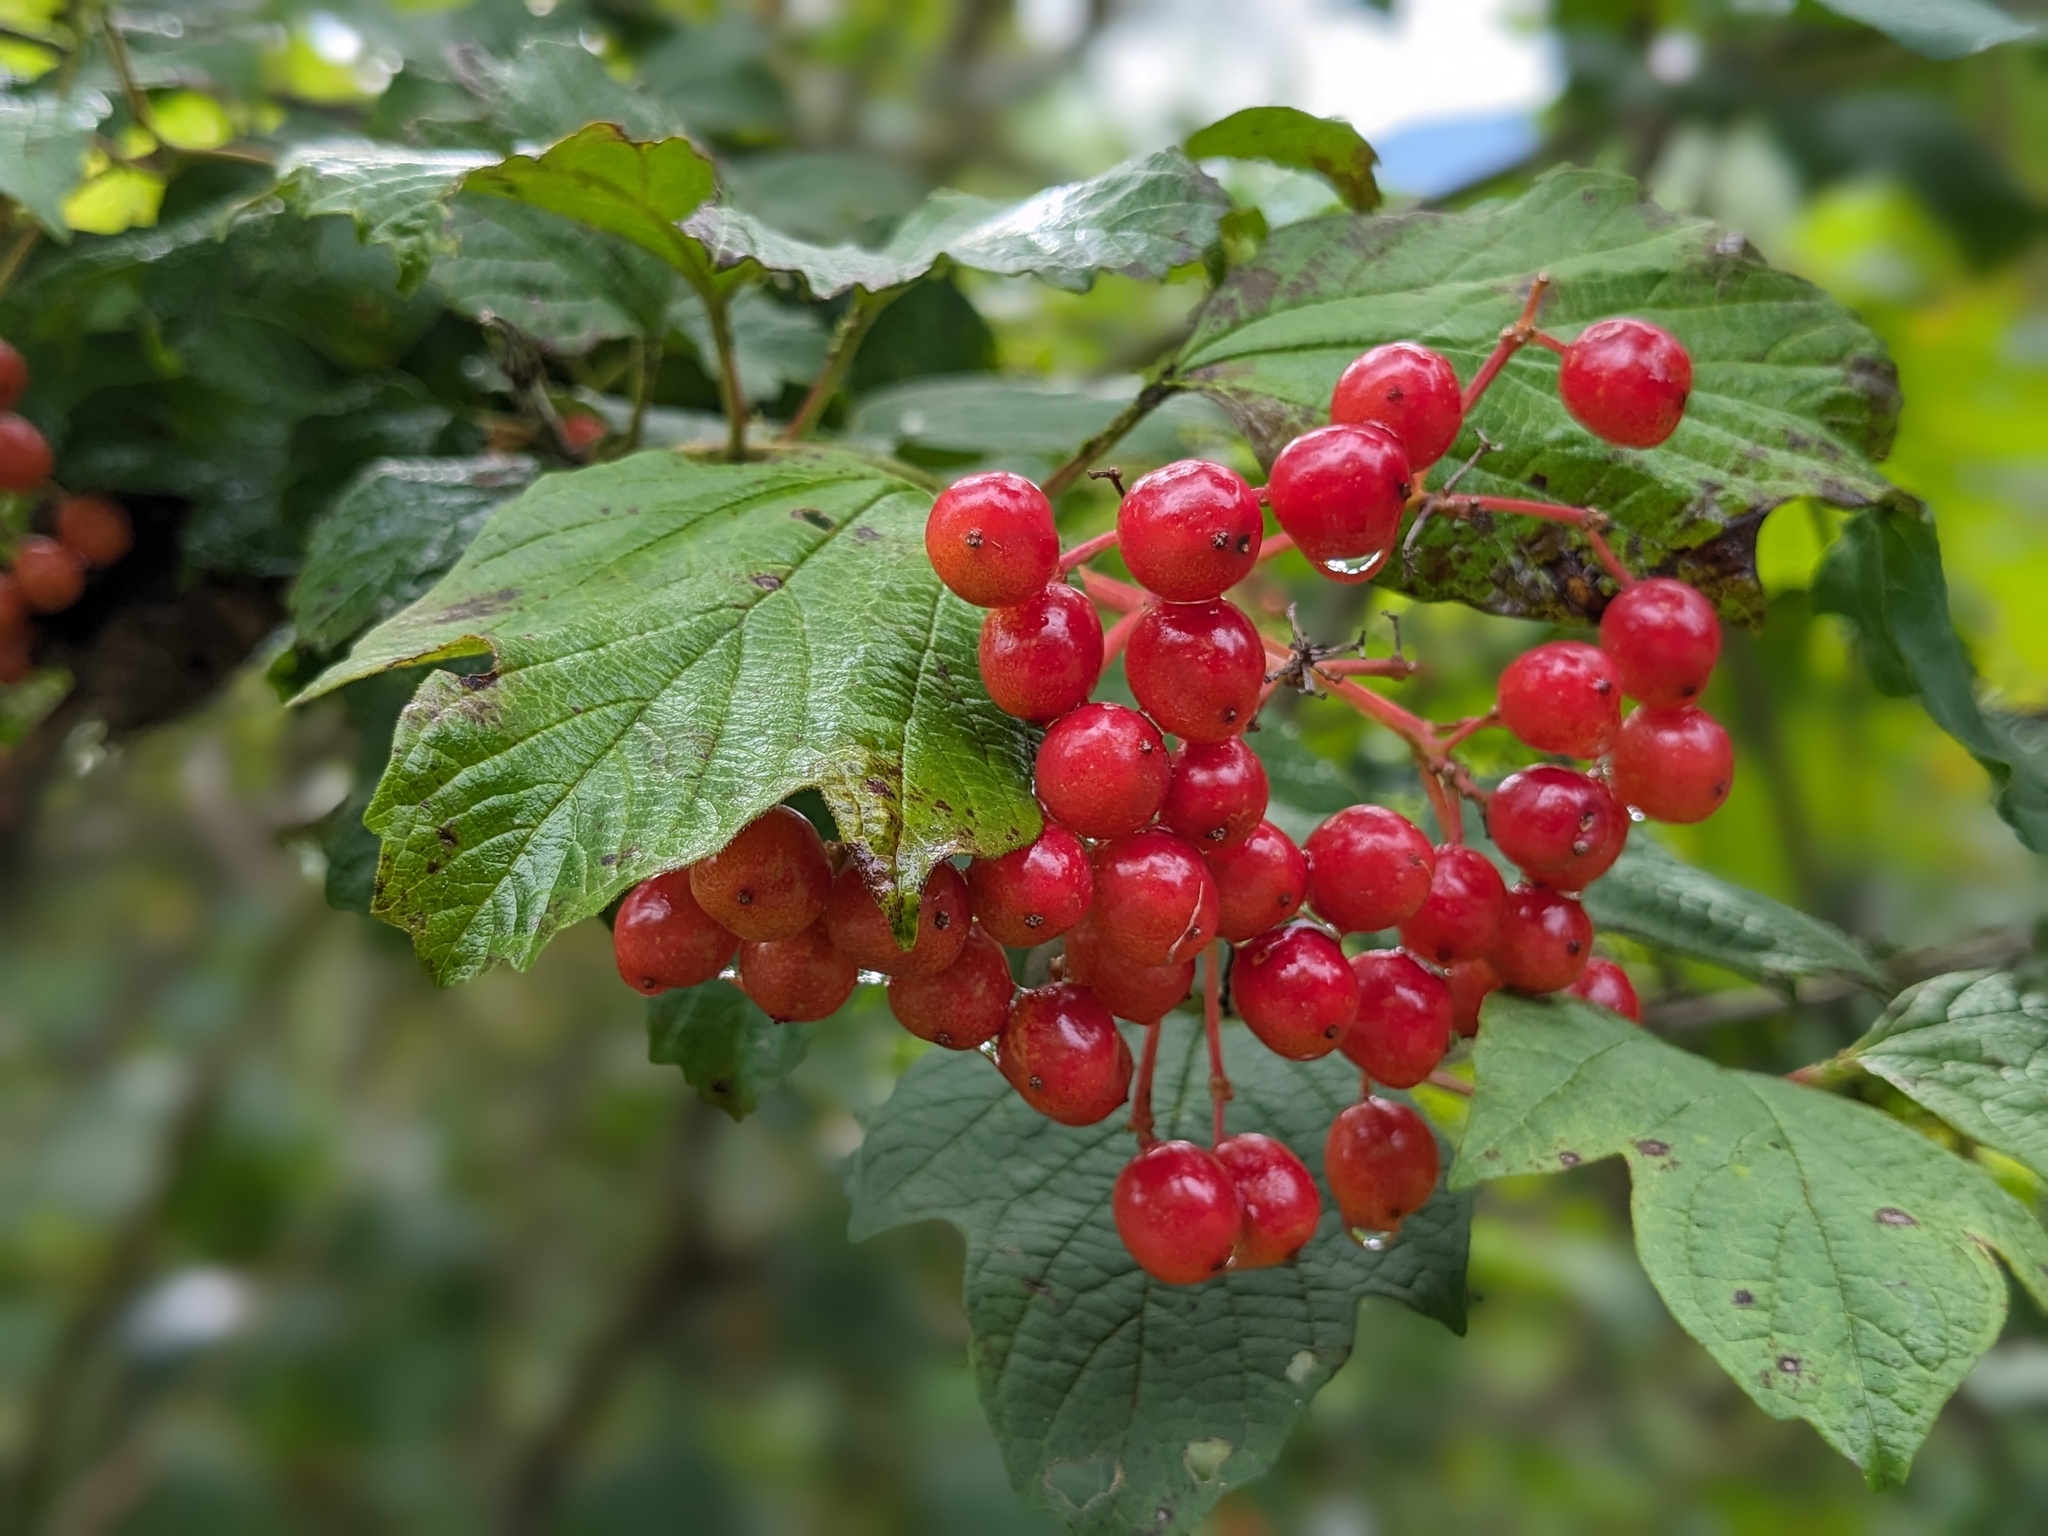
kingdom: Plantae
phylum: Tracheophyta
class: Magnoliopsida
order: Dipsacales
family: Viburnaceae
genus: Viburnum
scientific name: Viburnum opulus
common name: Guelder-rose
